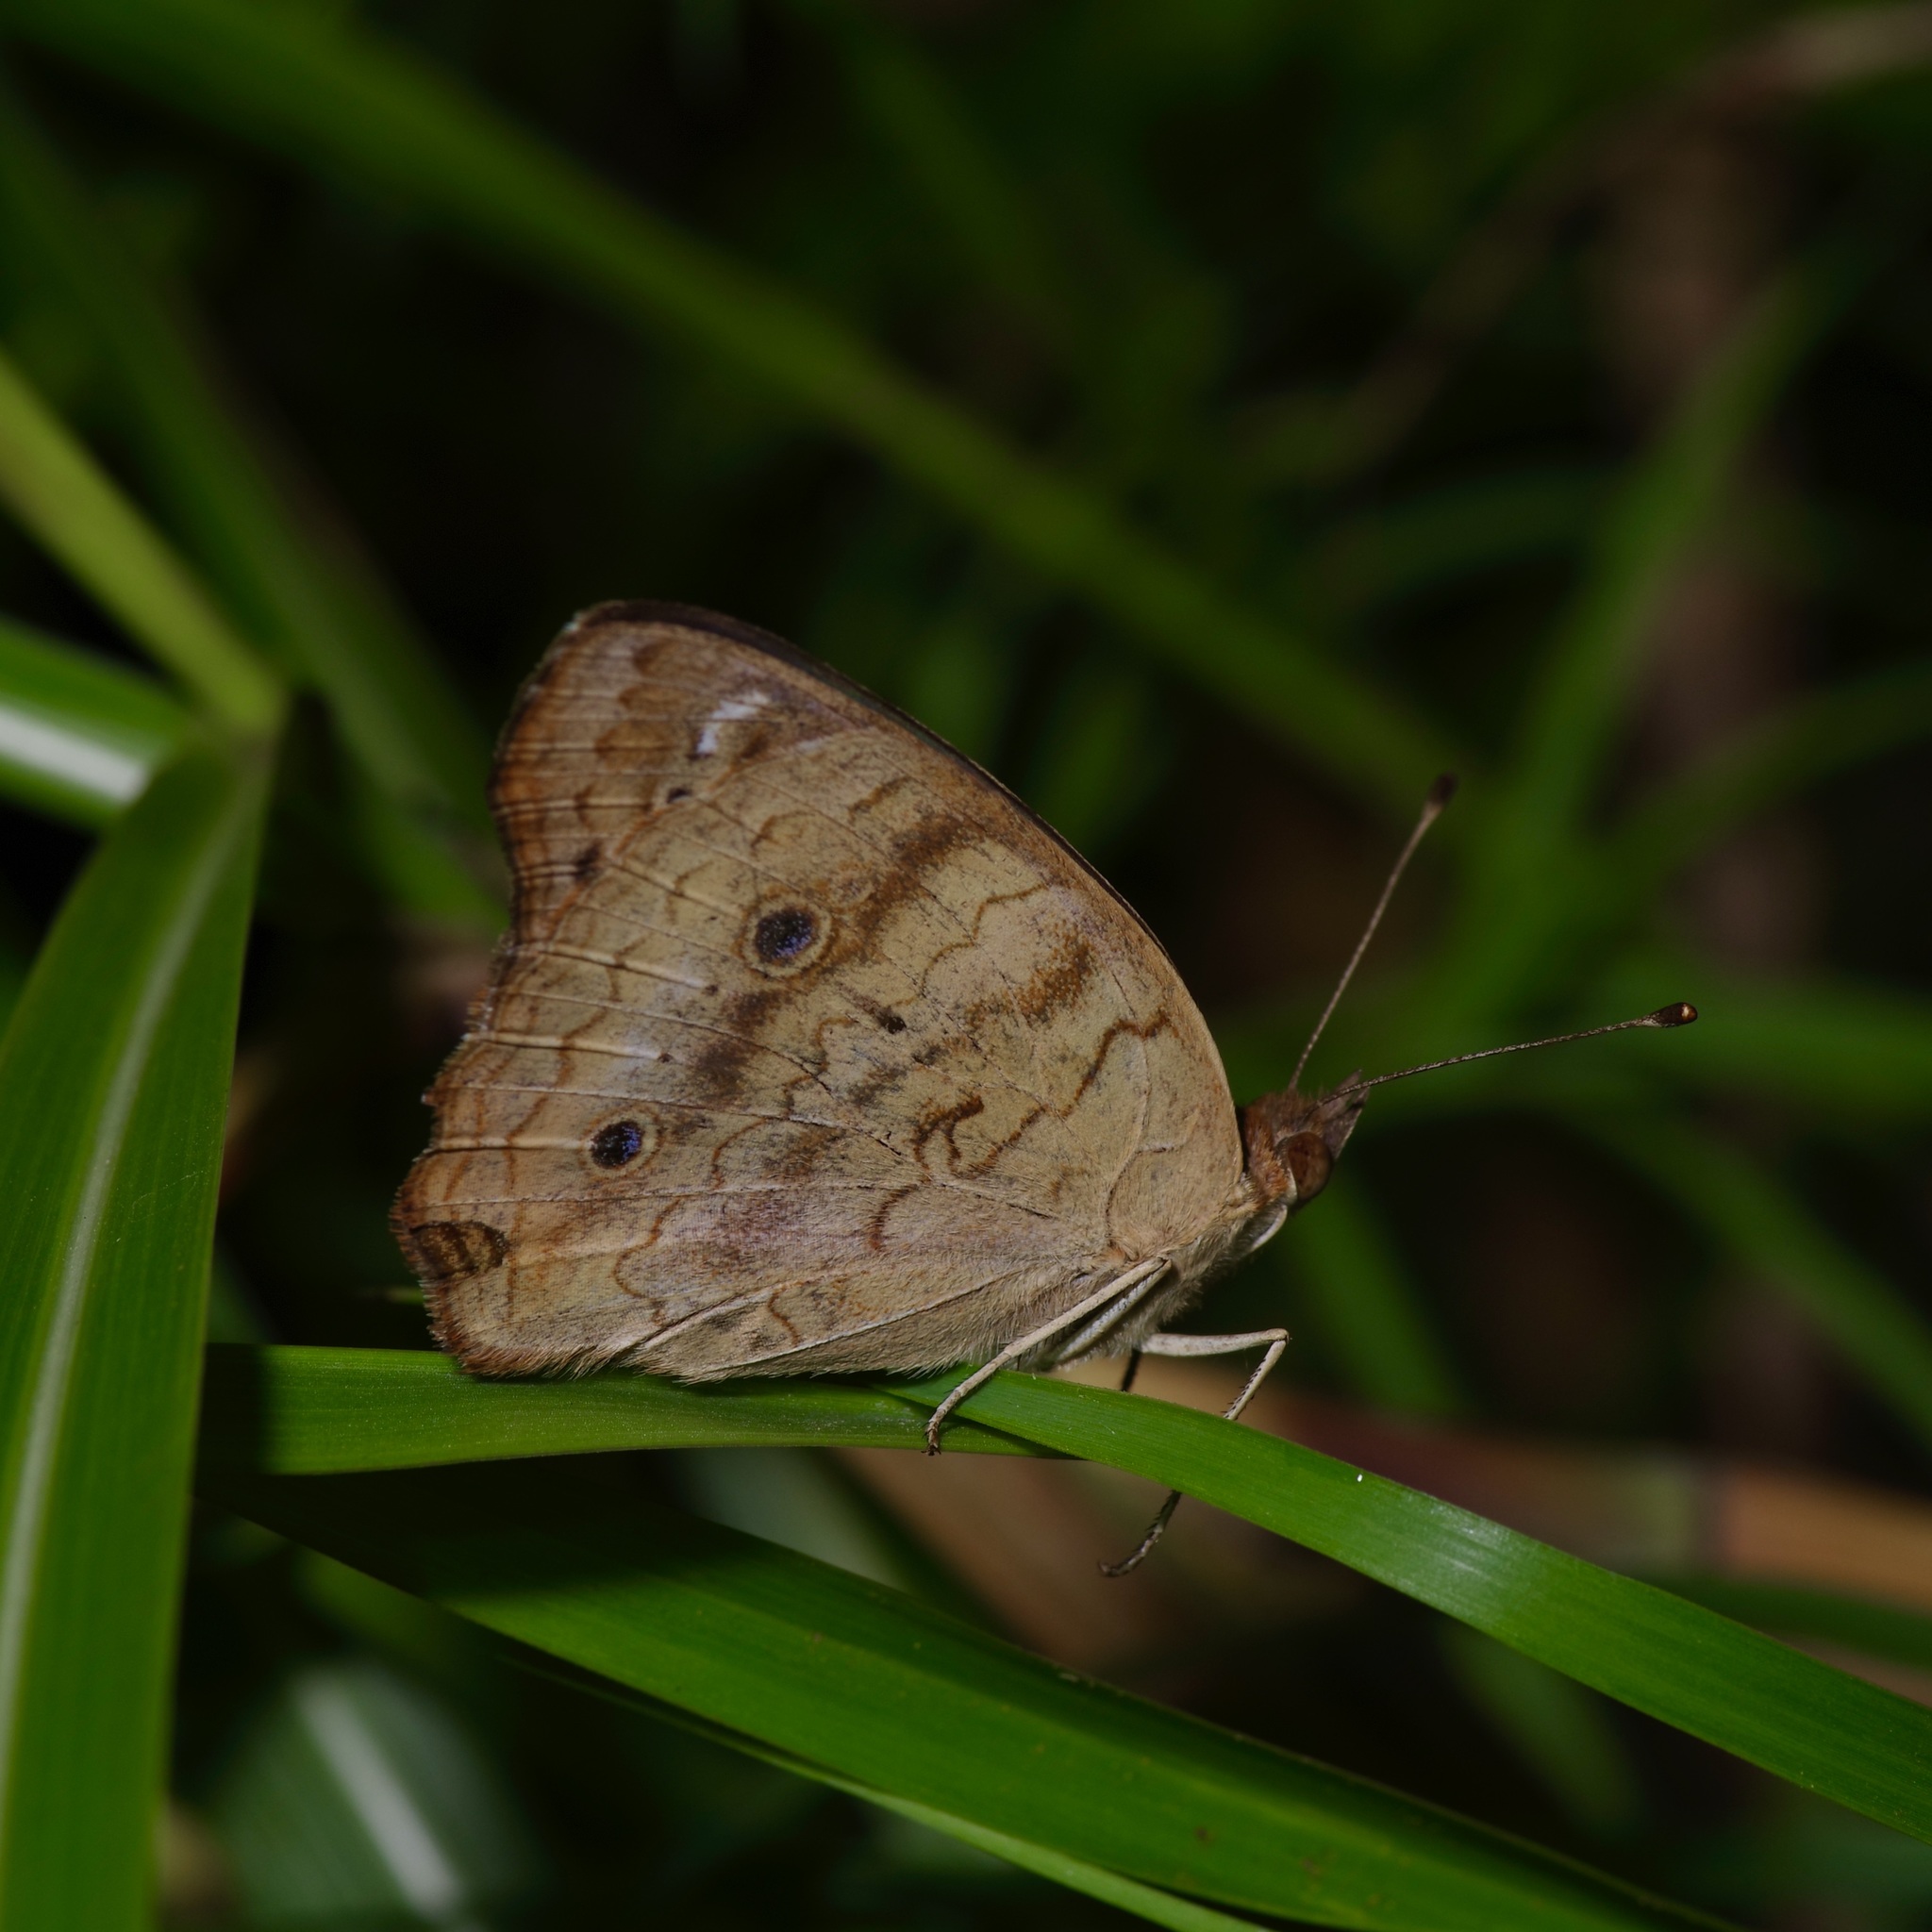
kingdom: Animalia
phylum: Arthropoda
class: Insecta
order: Lepidoptera
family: Nymphalidae
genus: Junonia
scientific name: Junonia coenia
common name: Common buckeye
